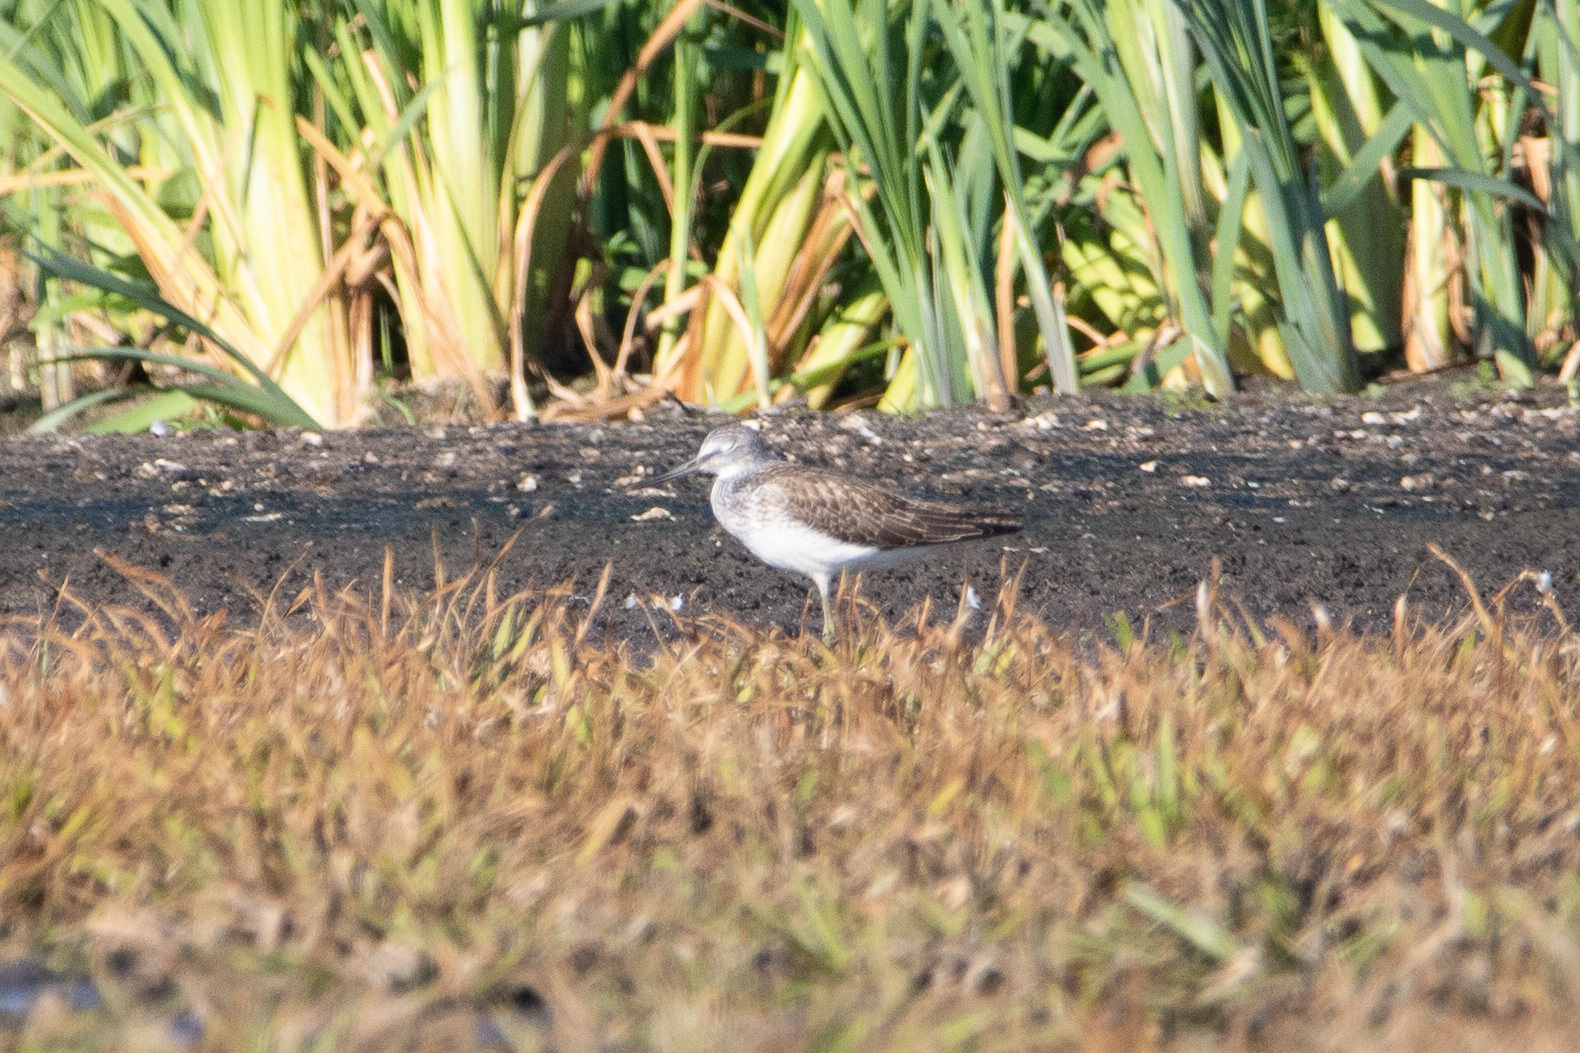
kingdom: Animalia
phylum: Chordata
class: Aves
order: Charadriiformes
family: Scolopacidae
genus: Tringa
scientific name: Tringa nebularia
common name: Common greenshank
